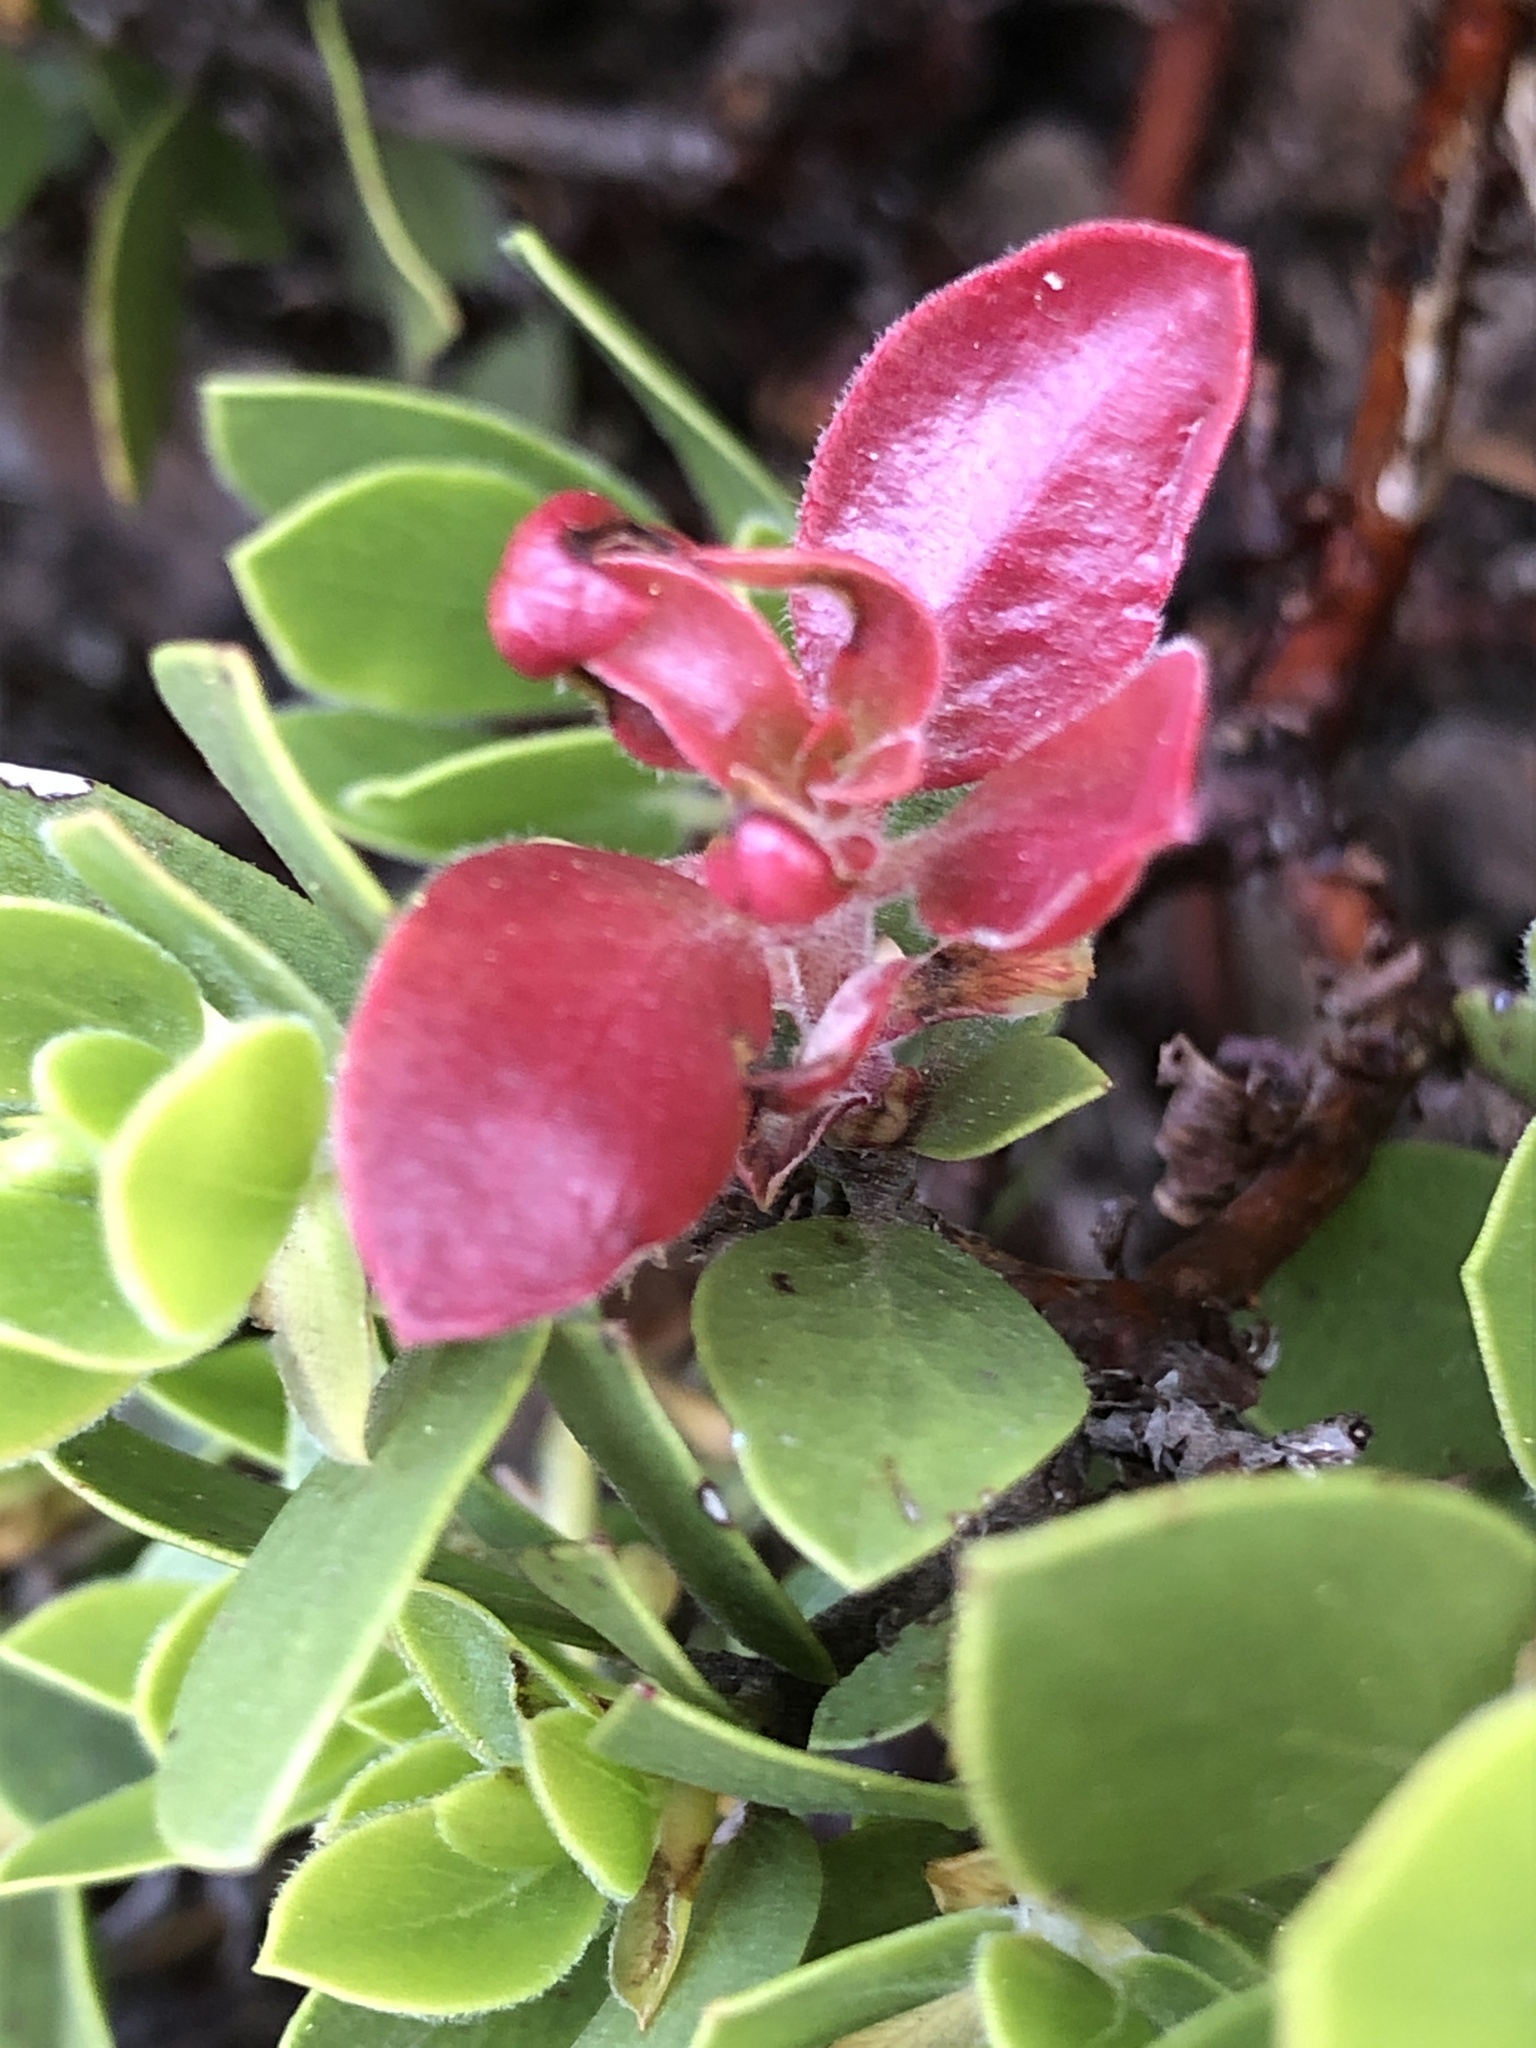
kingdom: Fungi
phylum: Basidiomycota
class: Exobasidiomycetes
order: Exobasidiales
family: Exobasidiaceae
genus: Exobasidium
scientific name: Exobasidium
